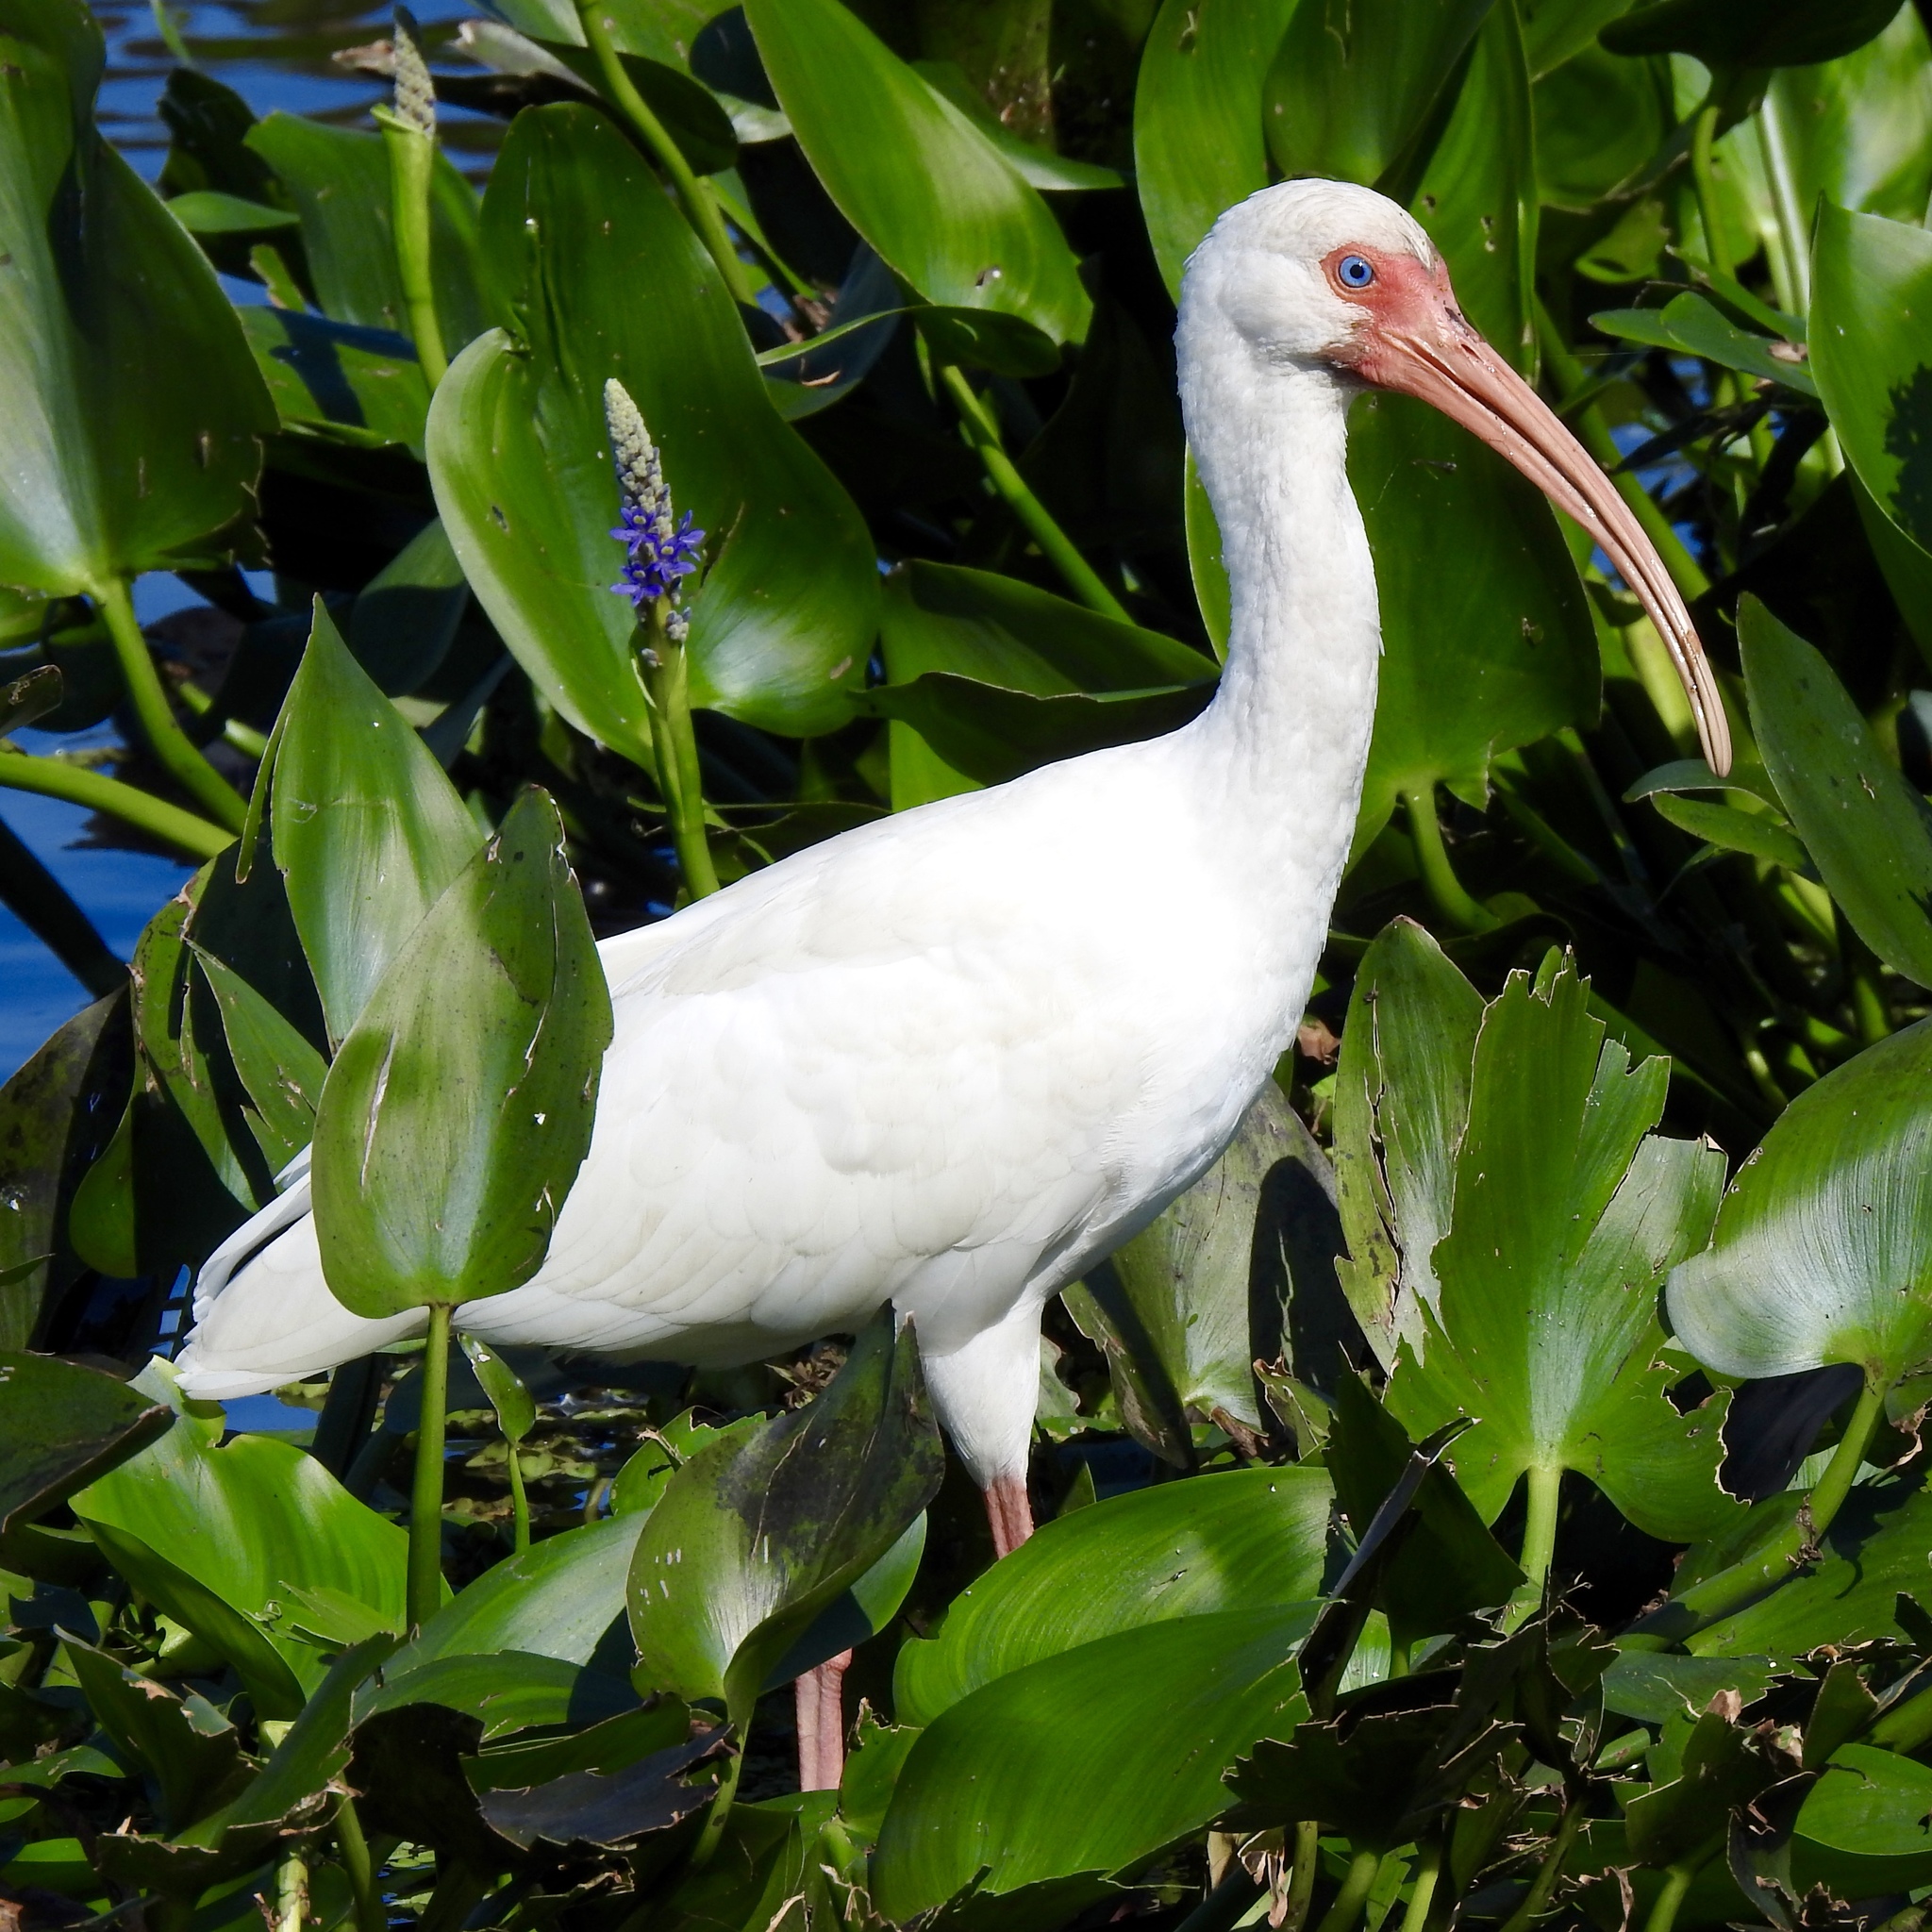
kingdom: Animalia
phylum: Chordata
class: Aves
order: Pelecaniformes
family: Threskiornithidae
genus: Eudocimus
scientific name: Eudocimus albus
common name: White ibis
